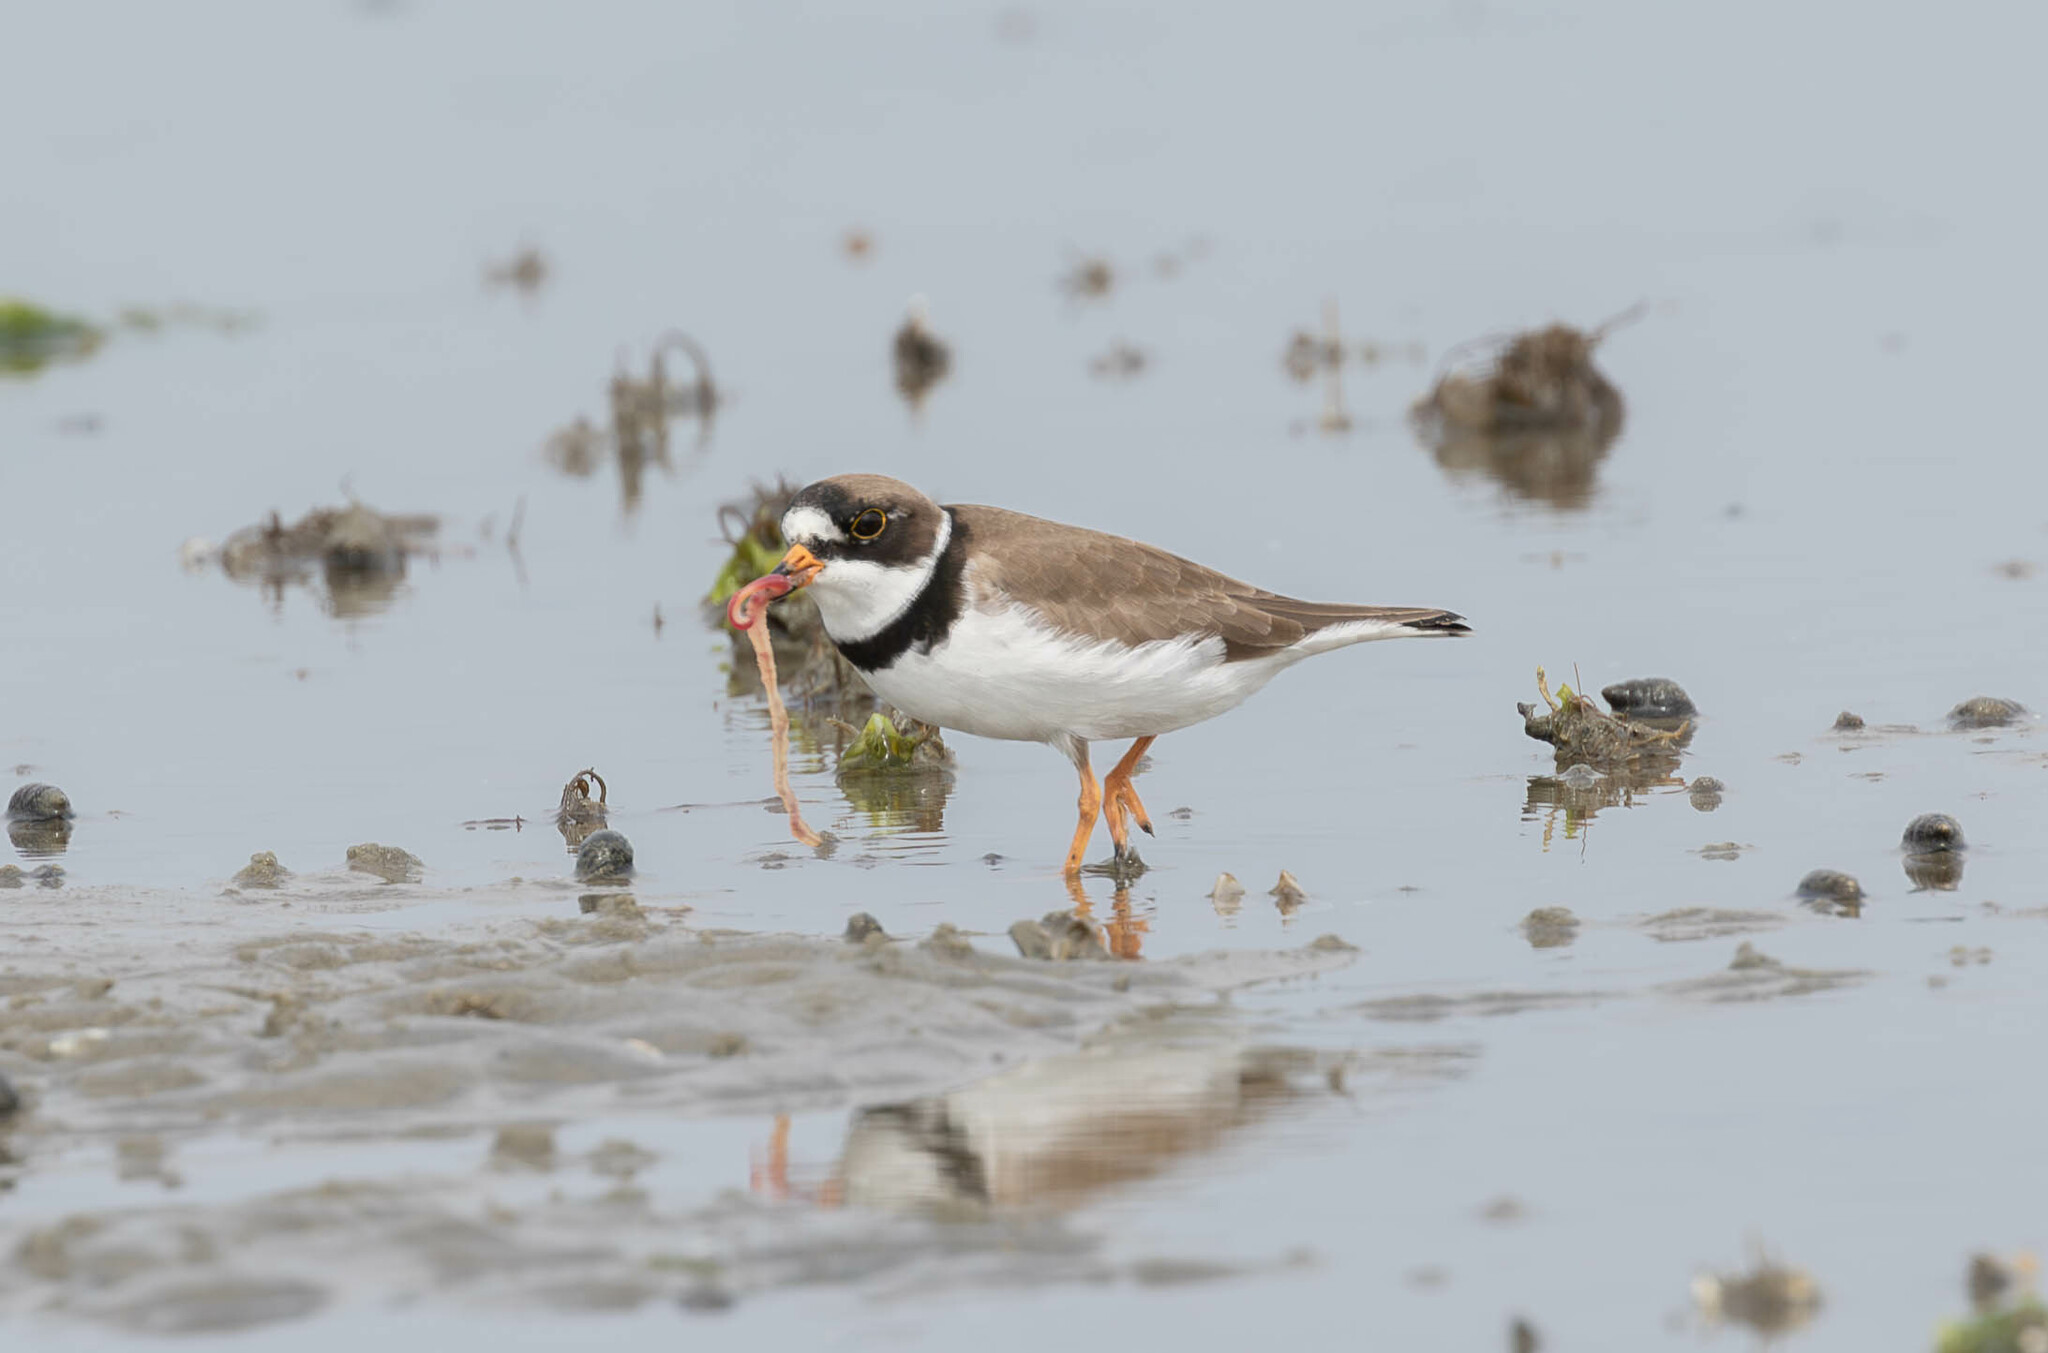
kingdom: Animalia
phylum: Chordata
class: Aves
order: Charadriiformes
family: Charadriidae
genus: Charadrius
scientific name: Charadrius semipalmatus
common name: Semipalmated plover
